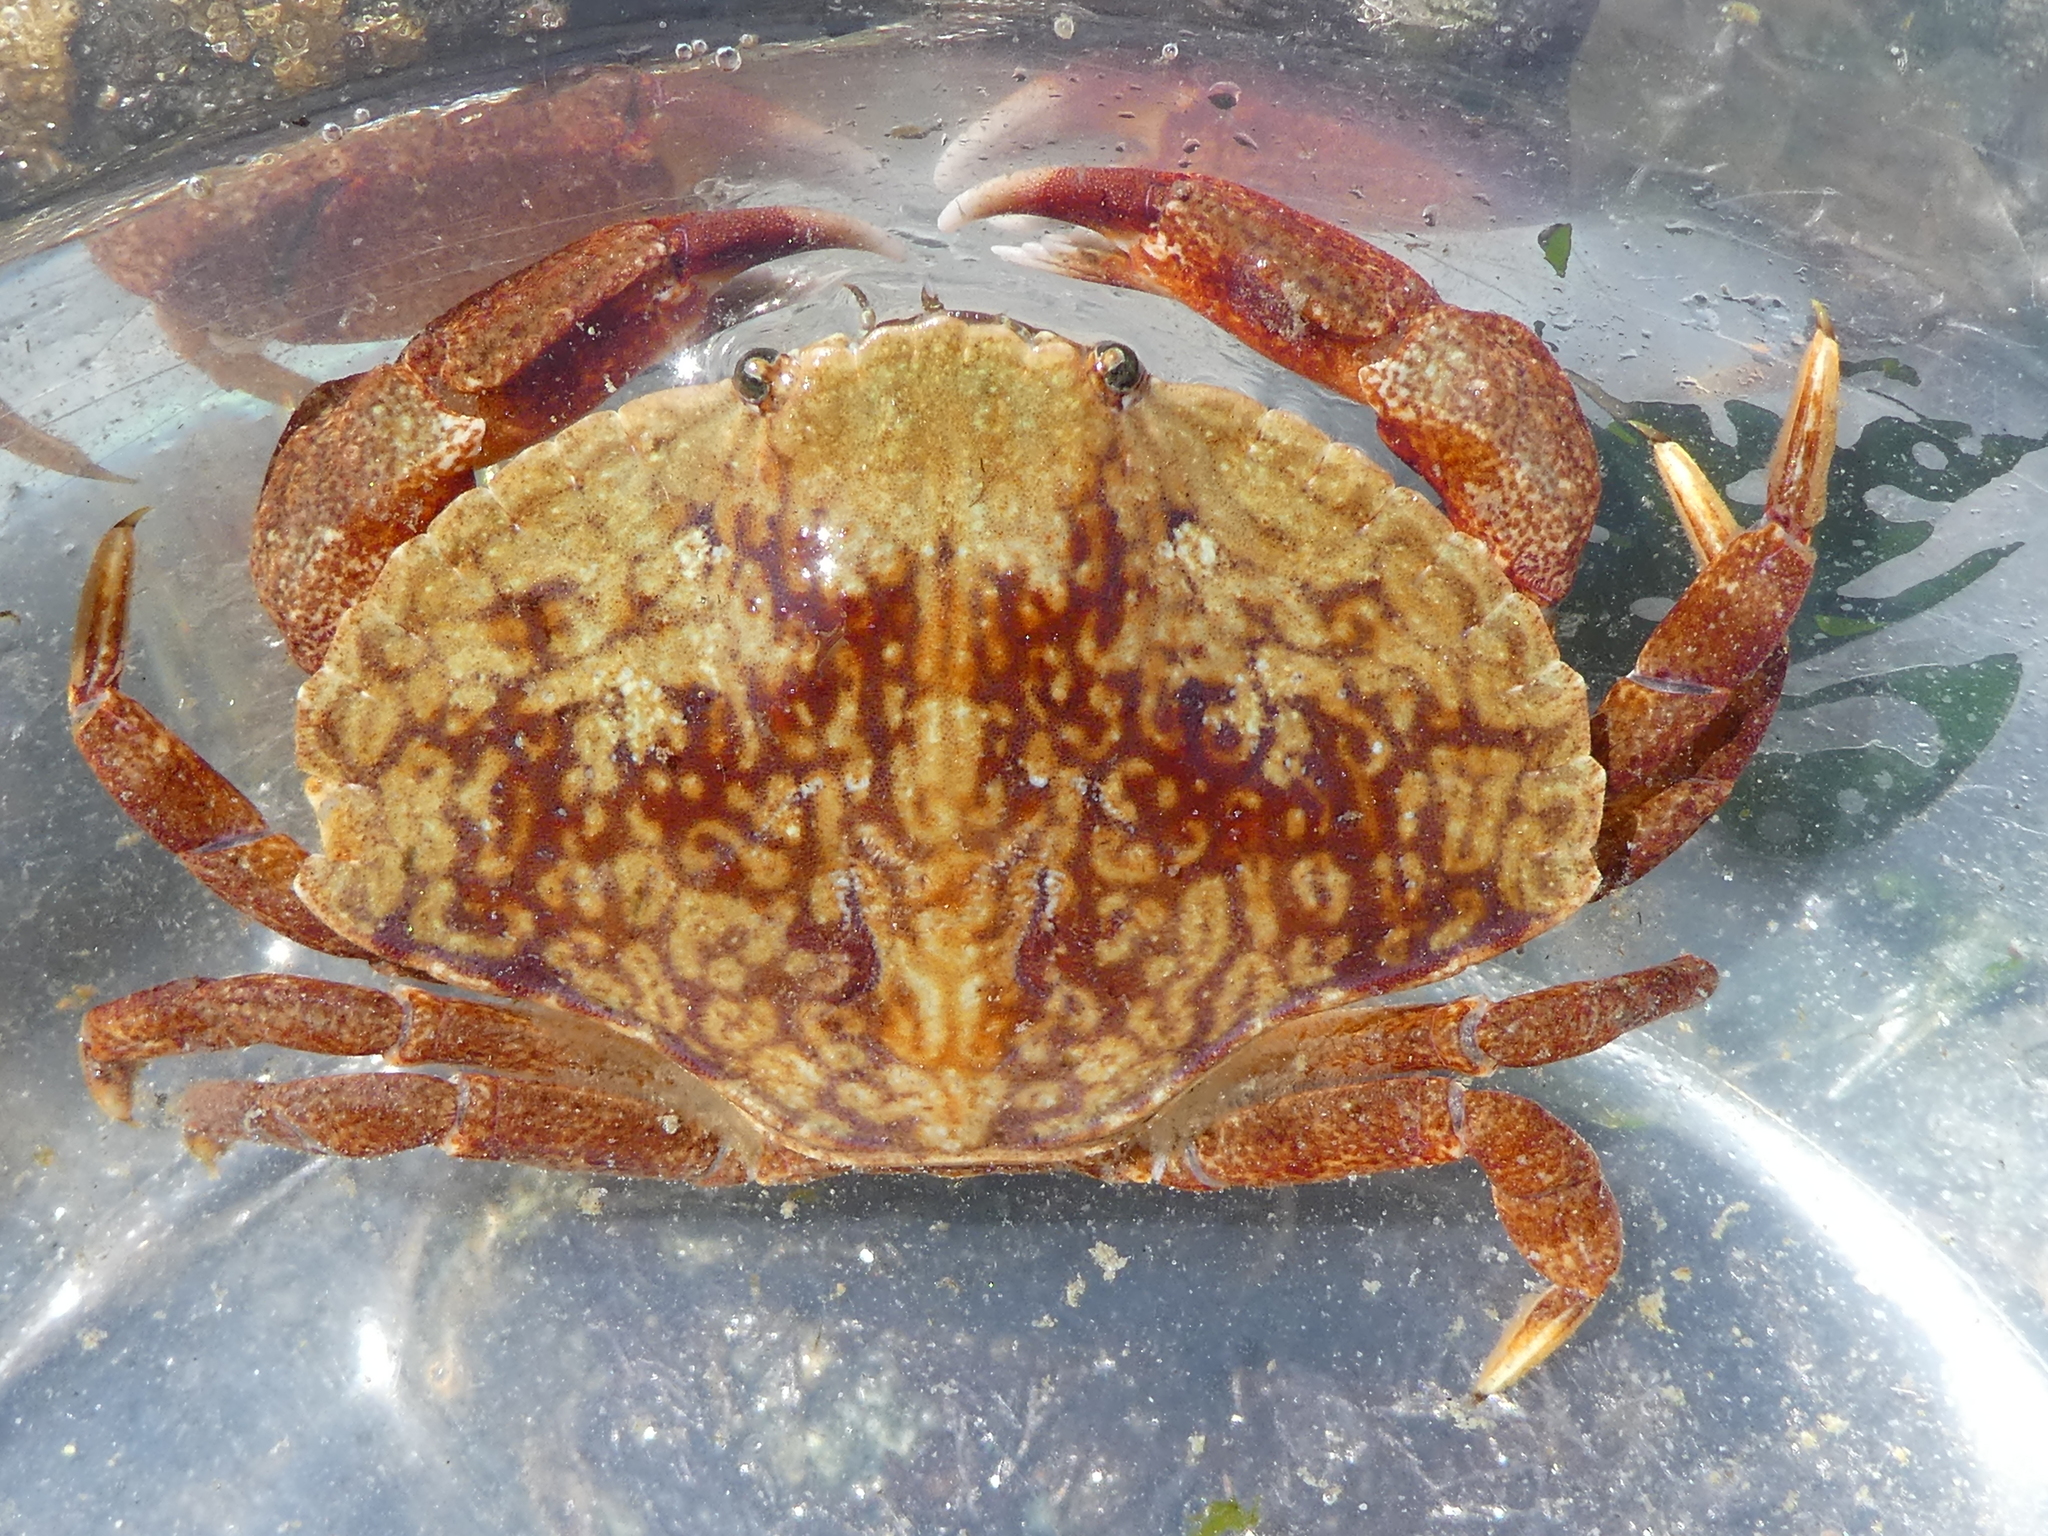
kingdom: Animalia
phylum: Arthropoda
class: Malacostraca
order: Decapoda
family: Cancridae
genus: Cancer
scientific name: Cancer productus
